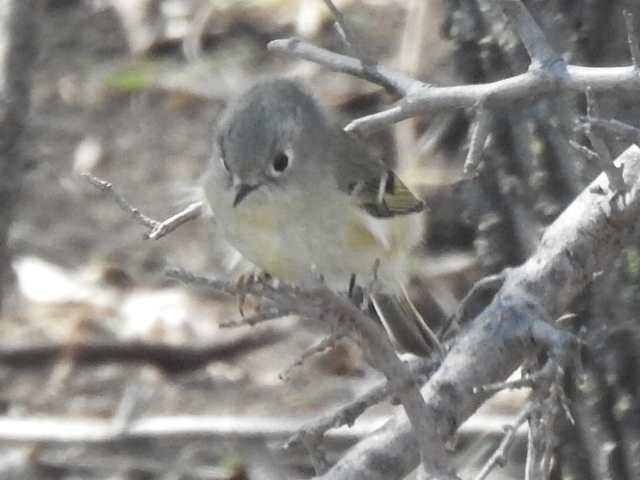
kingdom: Animalia
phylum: Chordata
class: Aves
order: Passeriformes
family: Regulidae
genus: Regulus
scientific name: Regulus calendula
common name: Ruby-crowned kinglet
